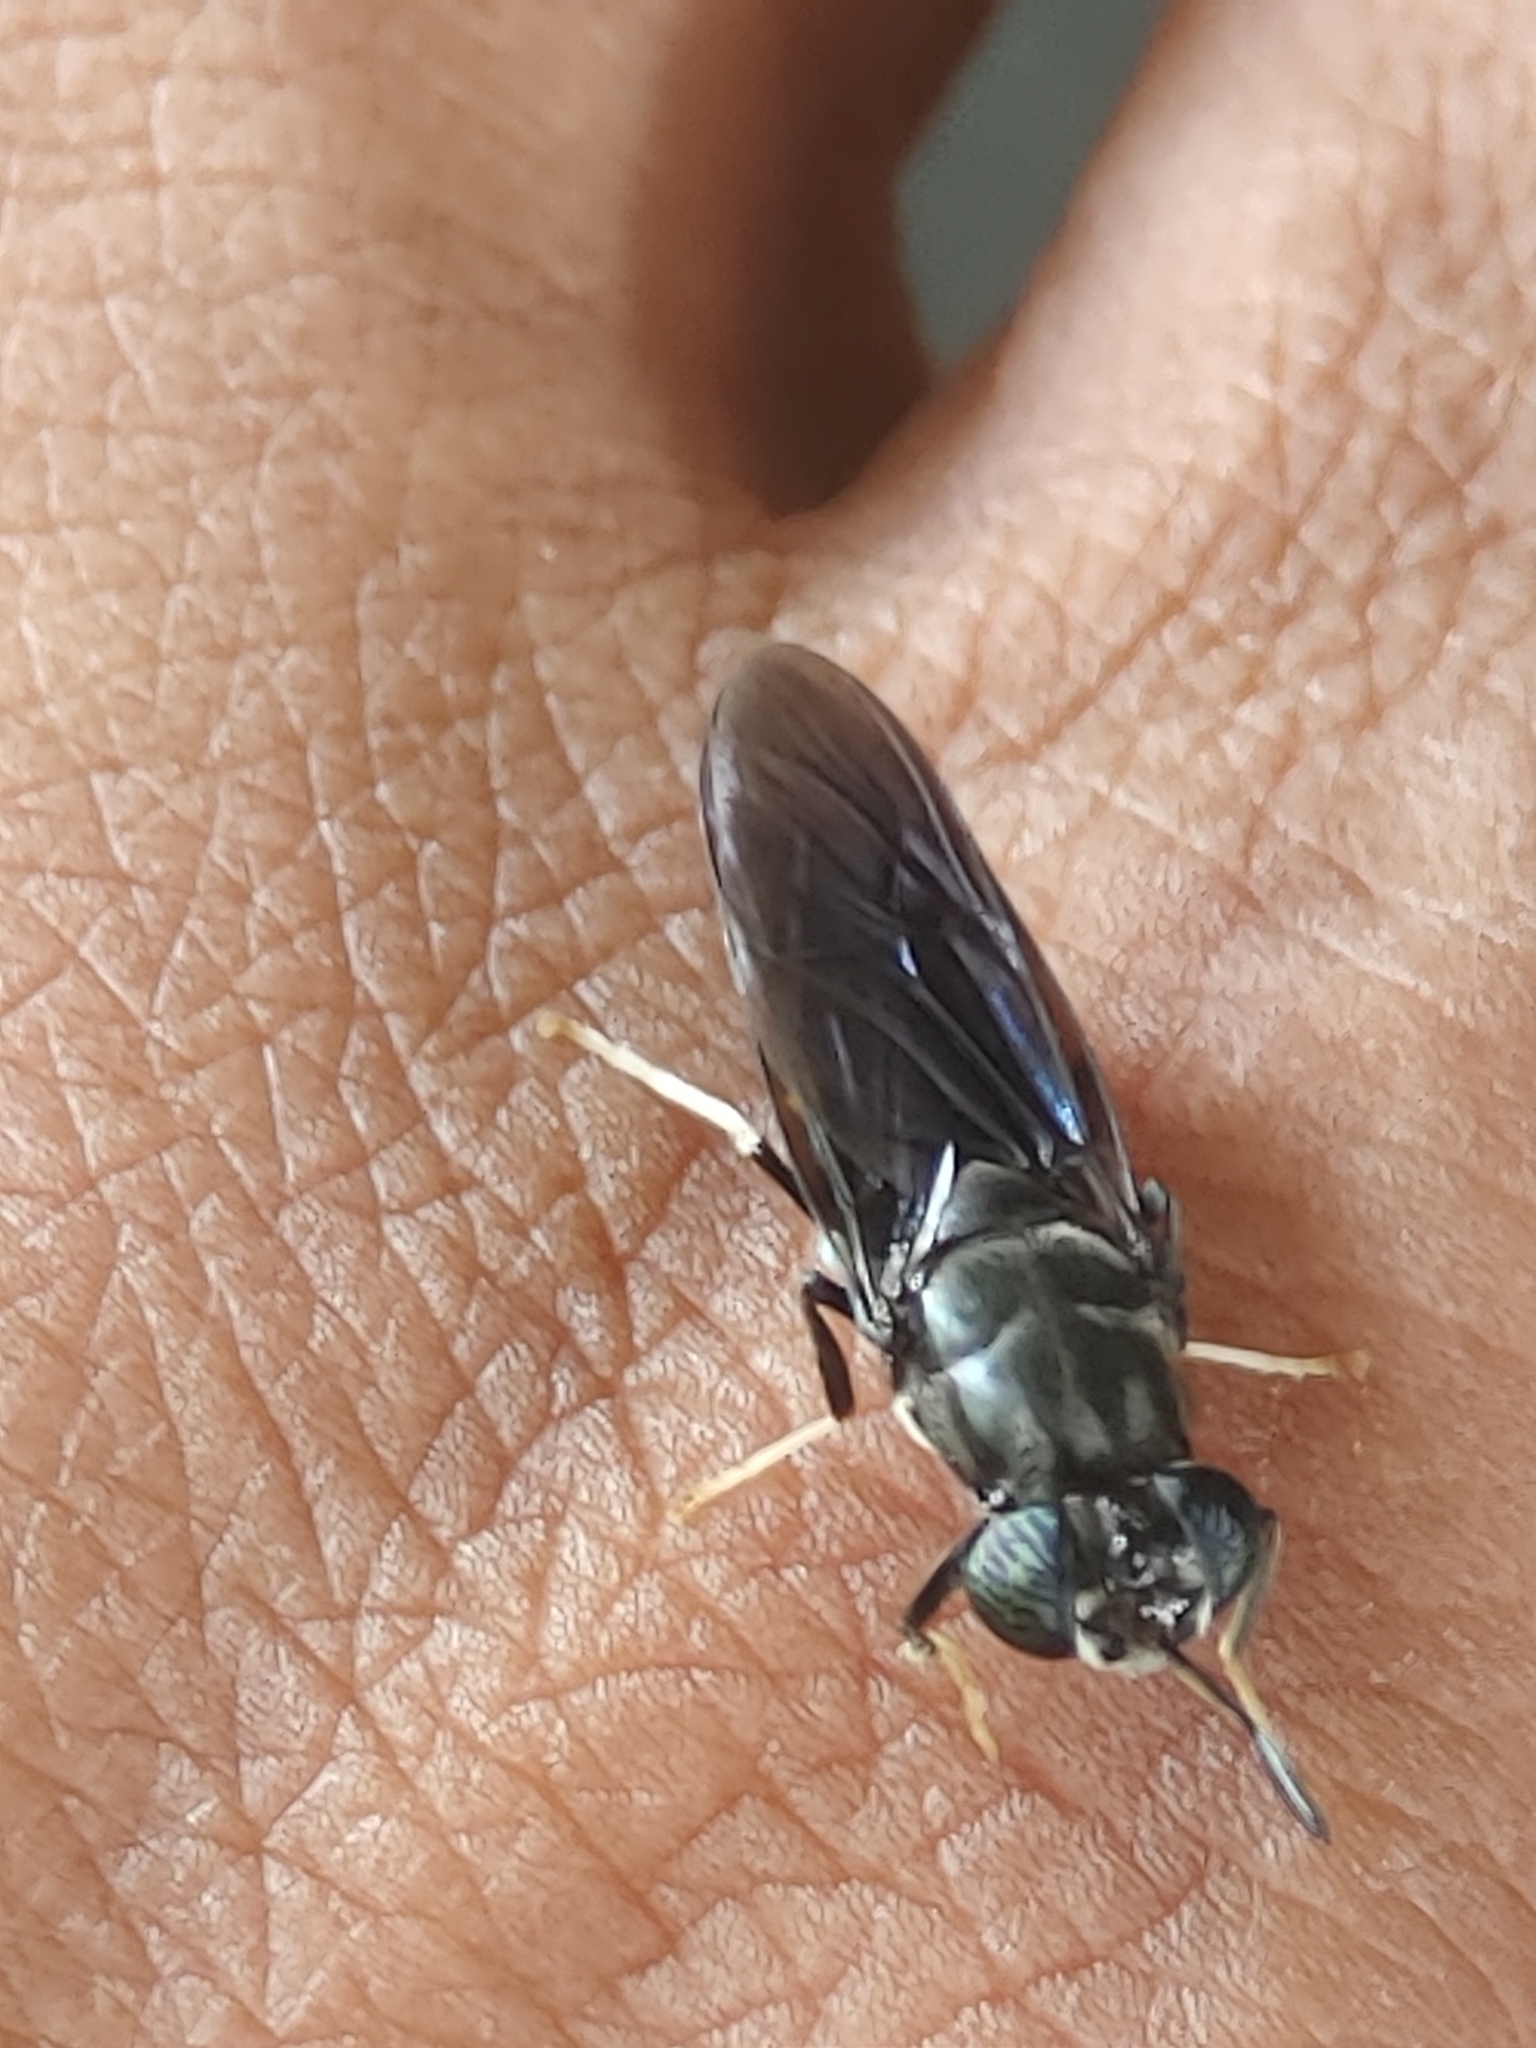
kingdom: Animalia
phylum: Arthropoda
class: Insecta
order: Diptera
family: Stratiomyidae
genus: Hermetia
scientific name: Hermetia illucens
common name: Black soldier fly
